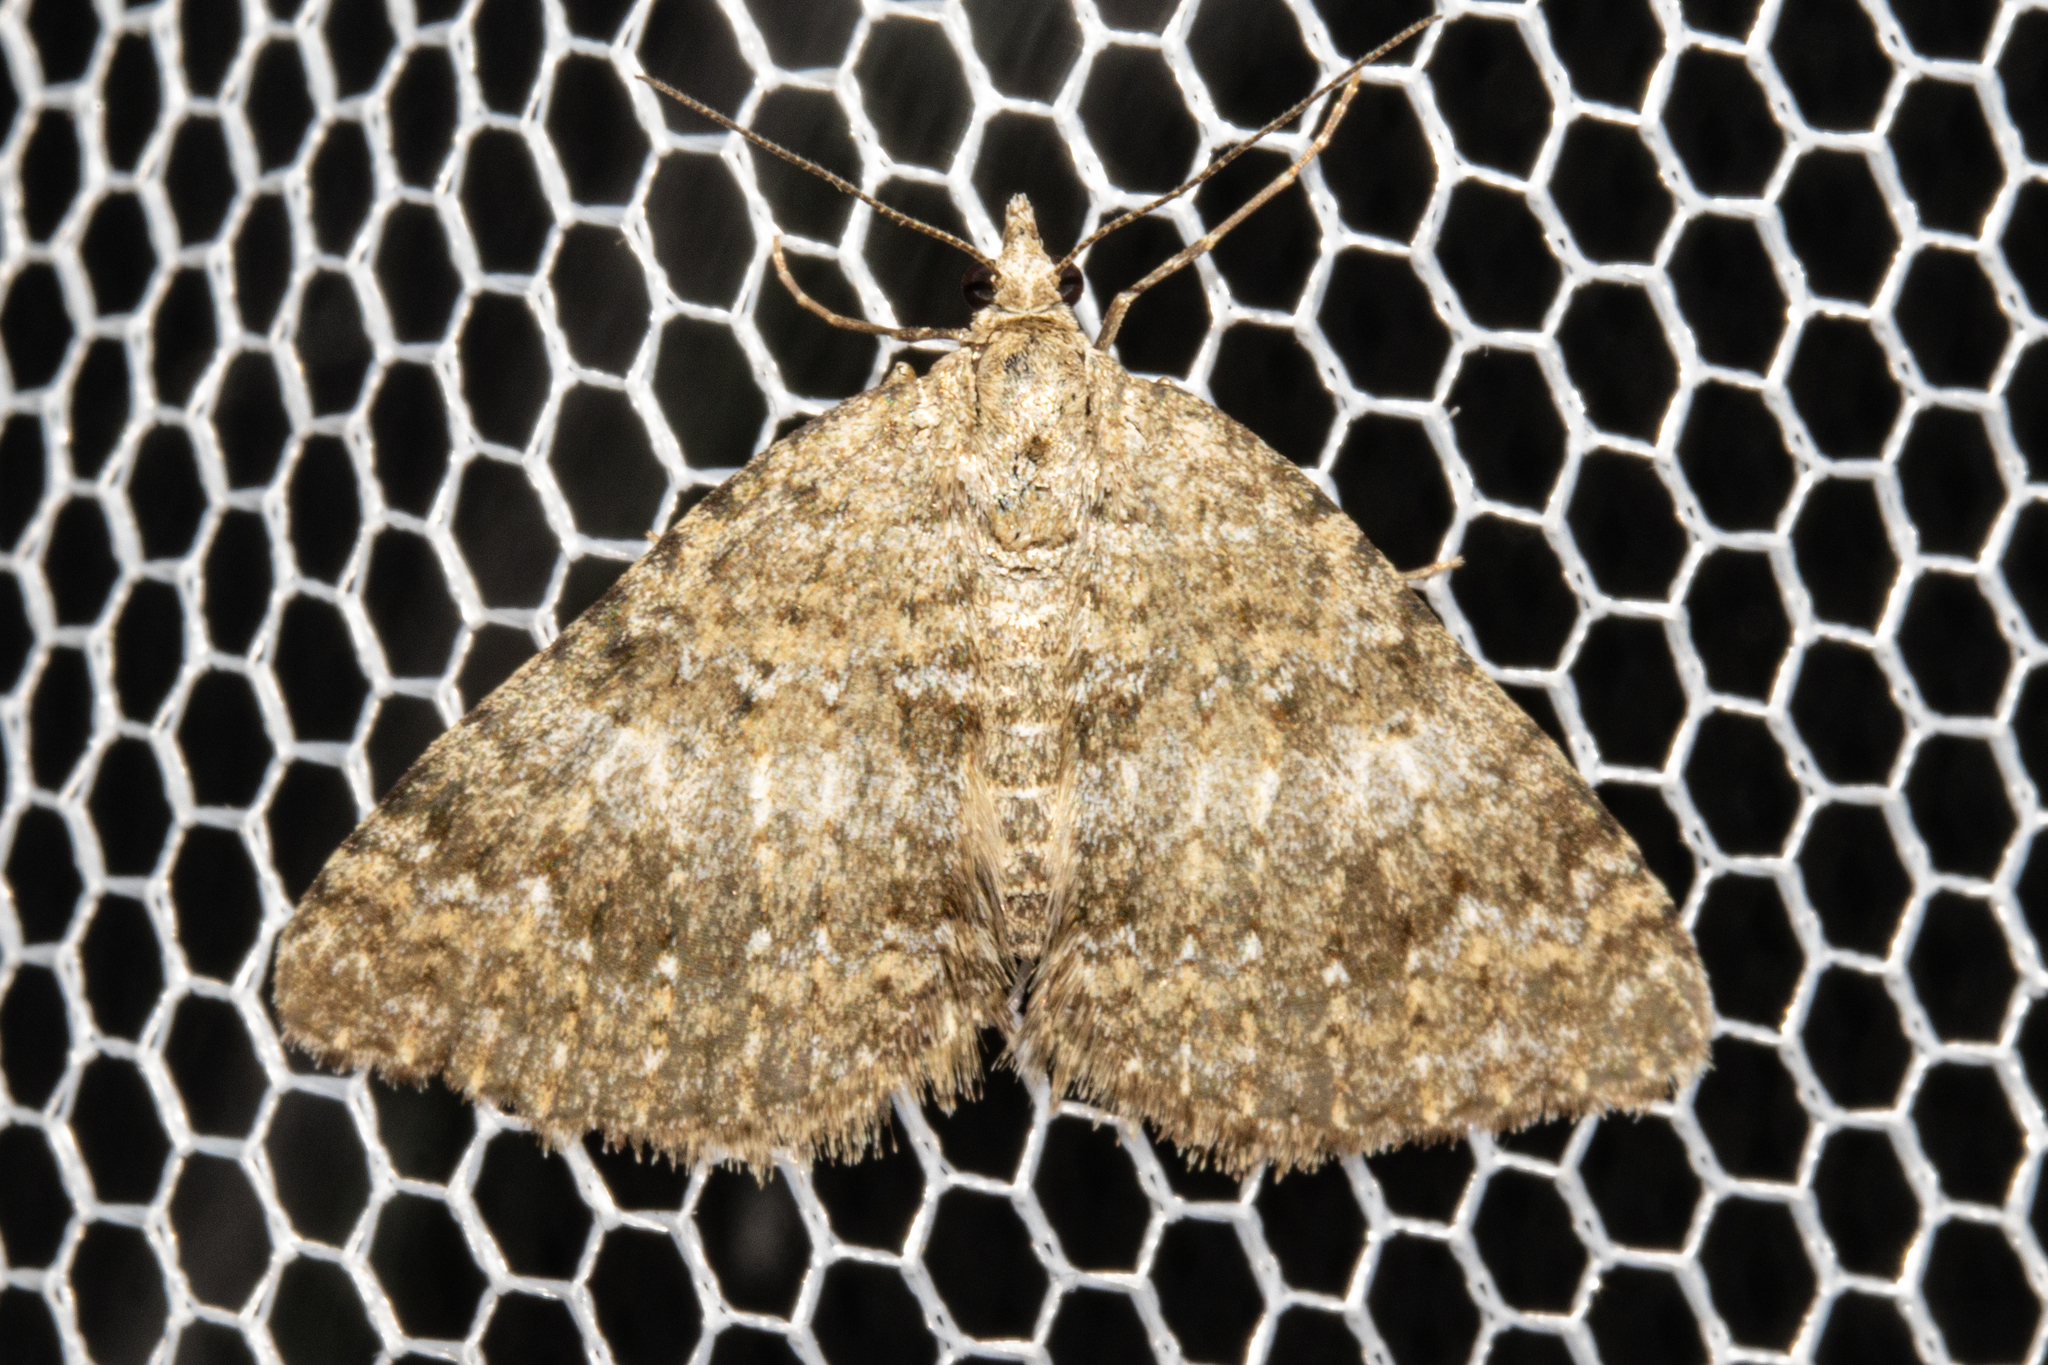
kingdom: Animalia
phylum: Arthropoda
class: Insecta
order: Lepidoptera
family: Geometridae
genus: Helastia
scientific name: Helastia corcularia
